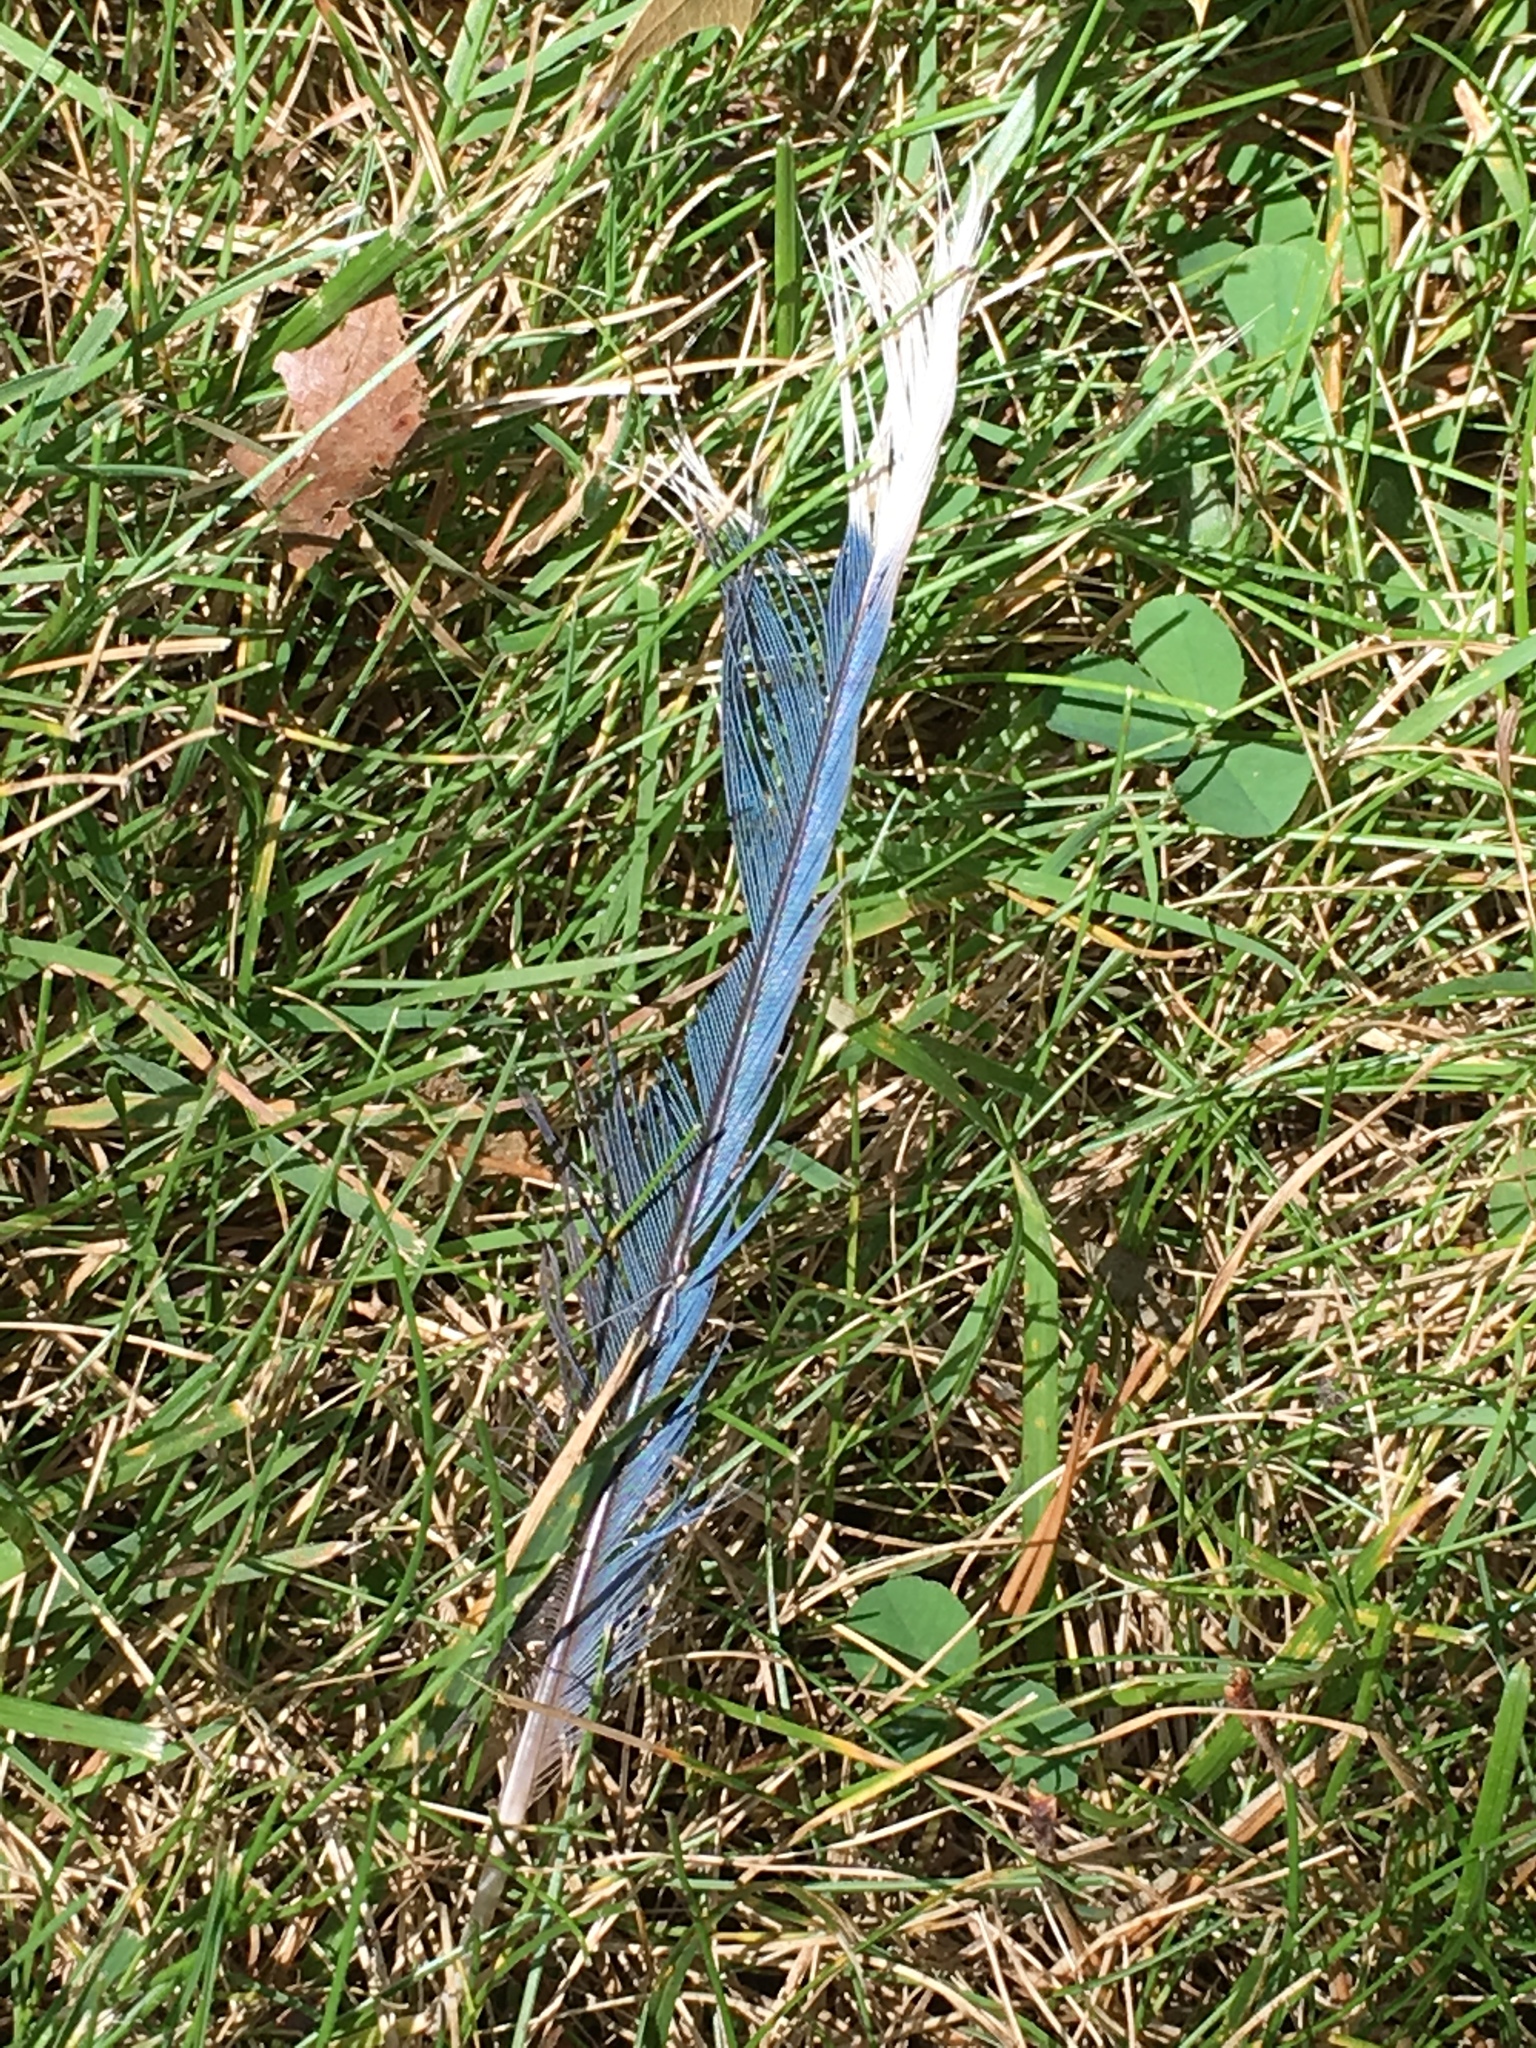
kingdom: Animalia
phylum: Chordata
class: Aves
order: Passeriformes
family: Corvidae
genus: Cyanocitta
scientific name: Cyanocitta cristata
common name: Blue jay
